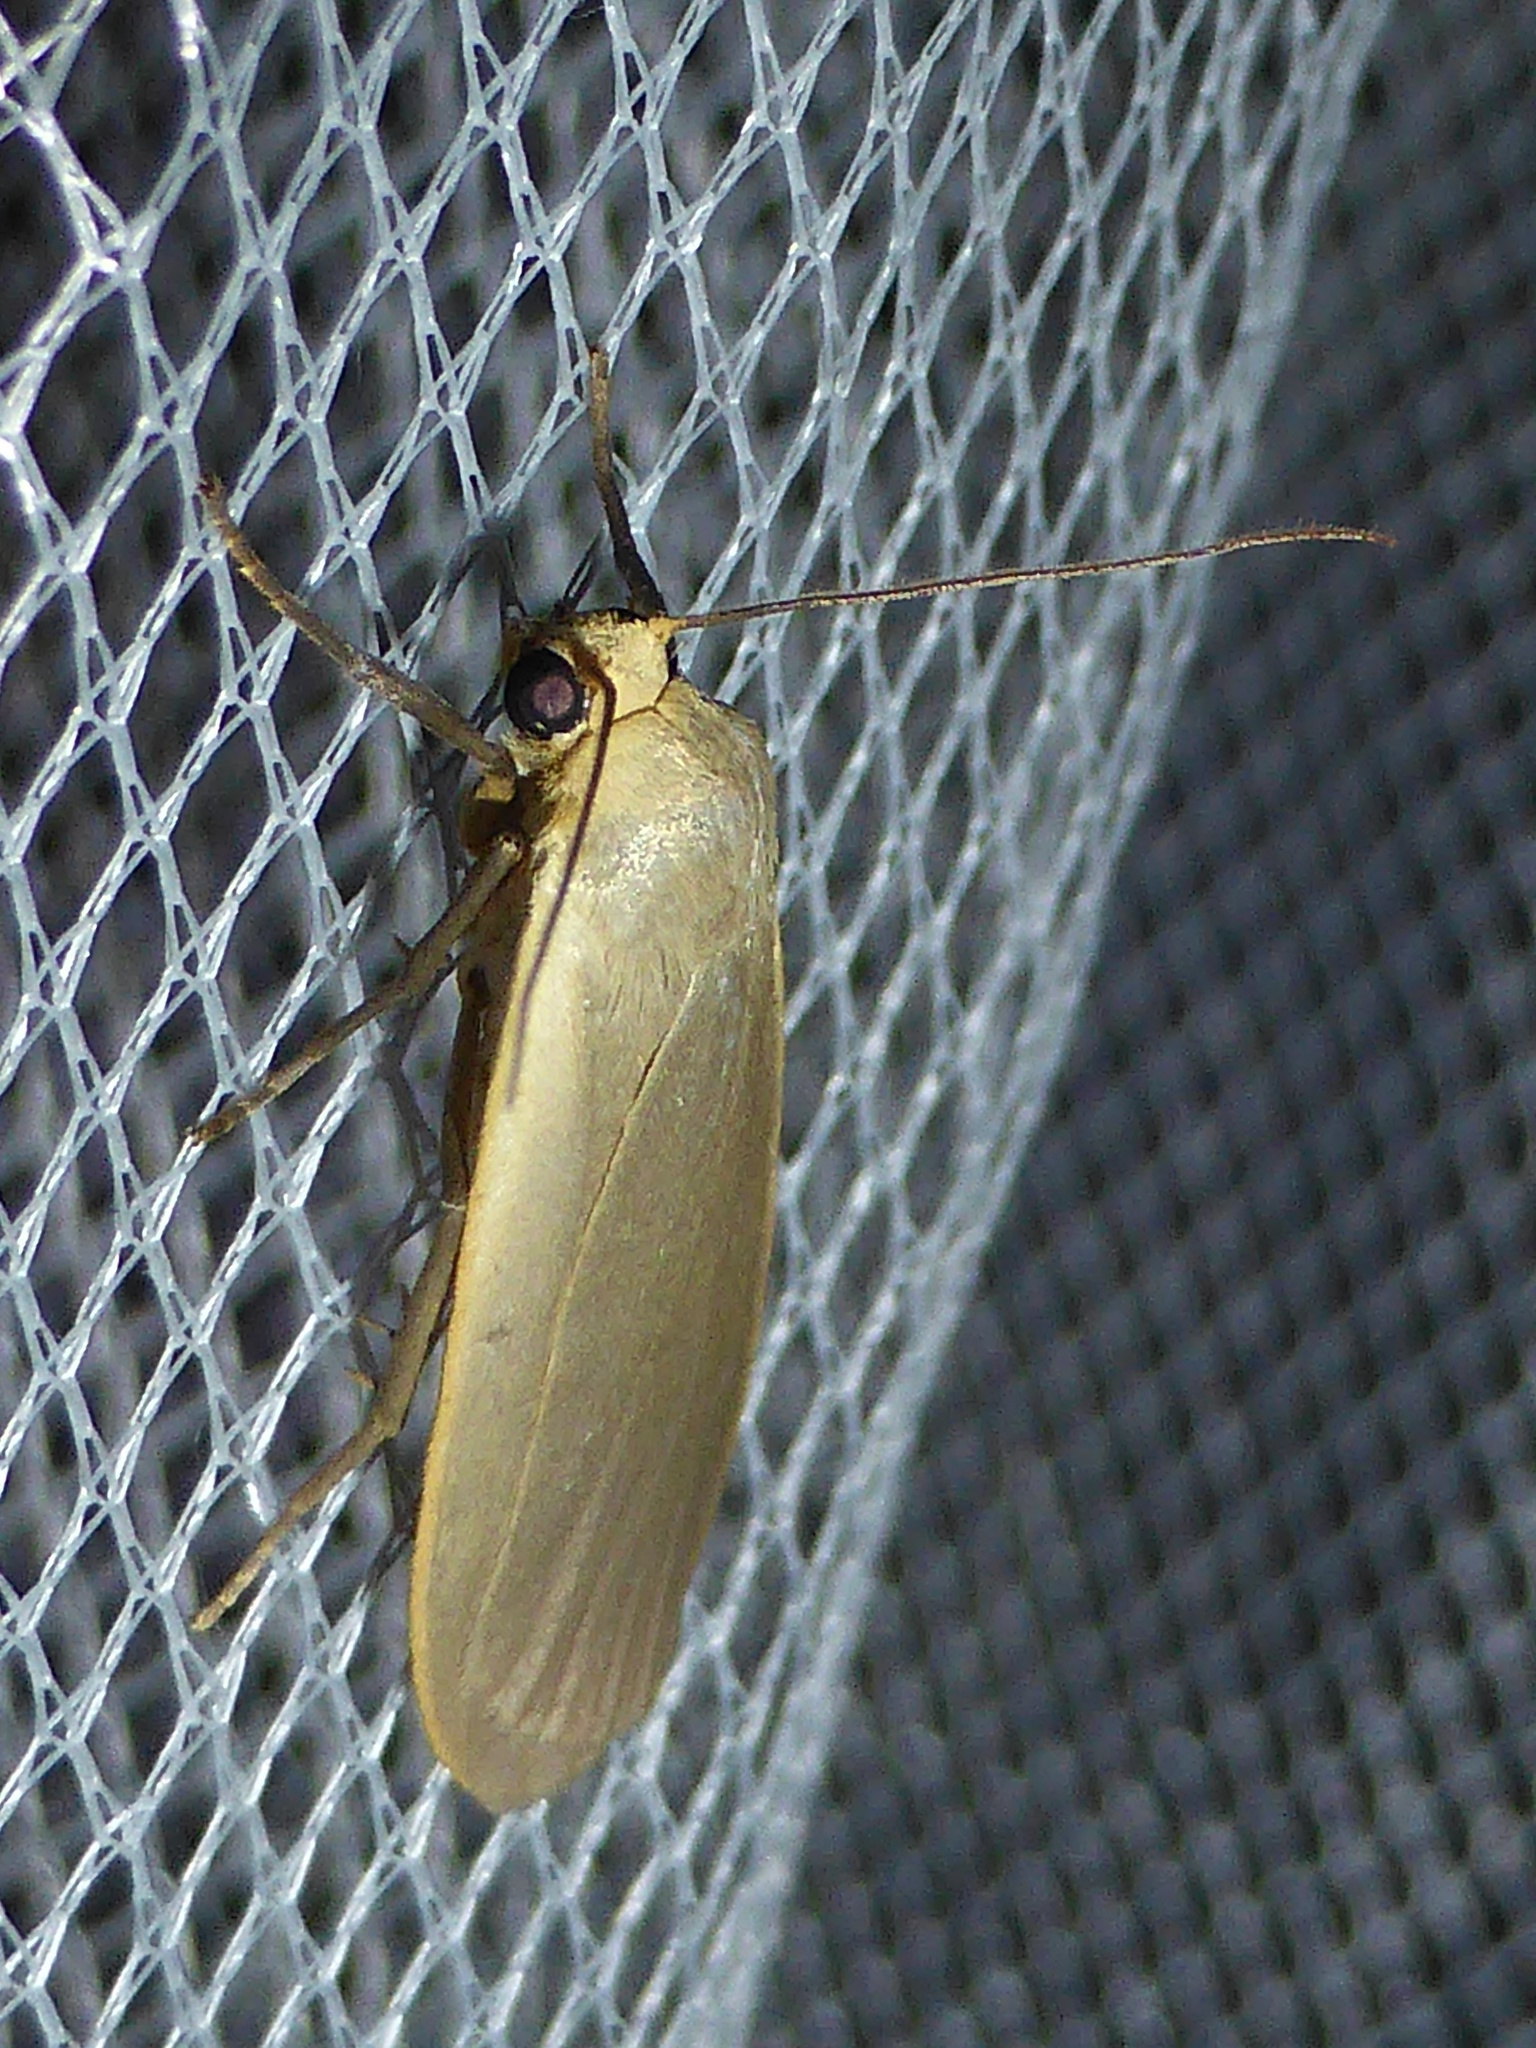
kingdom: Animalia
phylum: Arthropoda
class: Insecta
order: Lepidoptera
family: Erebidae
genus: Collita
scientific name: Collita griseola
